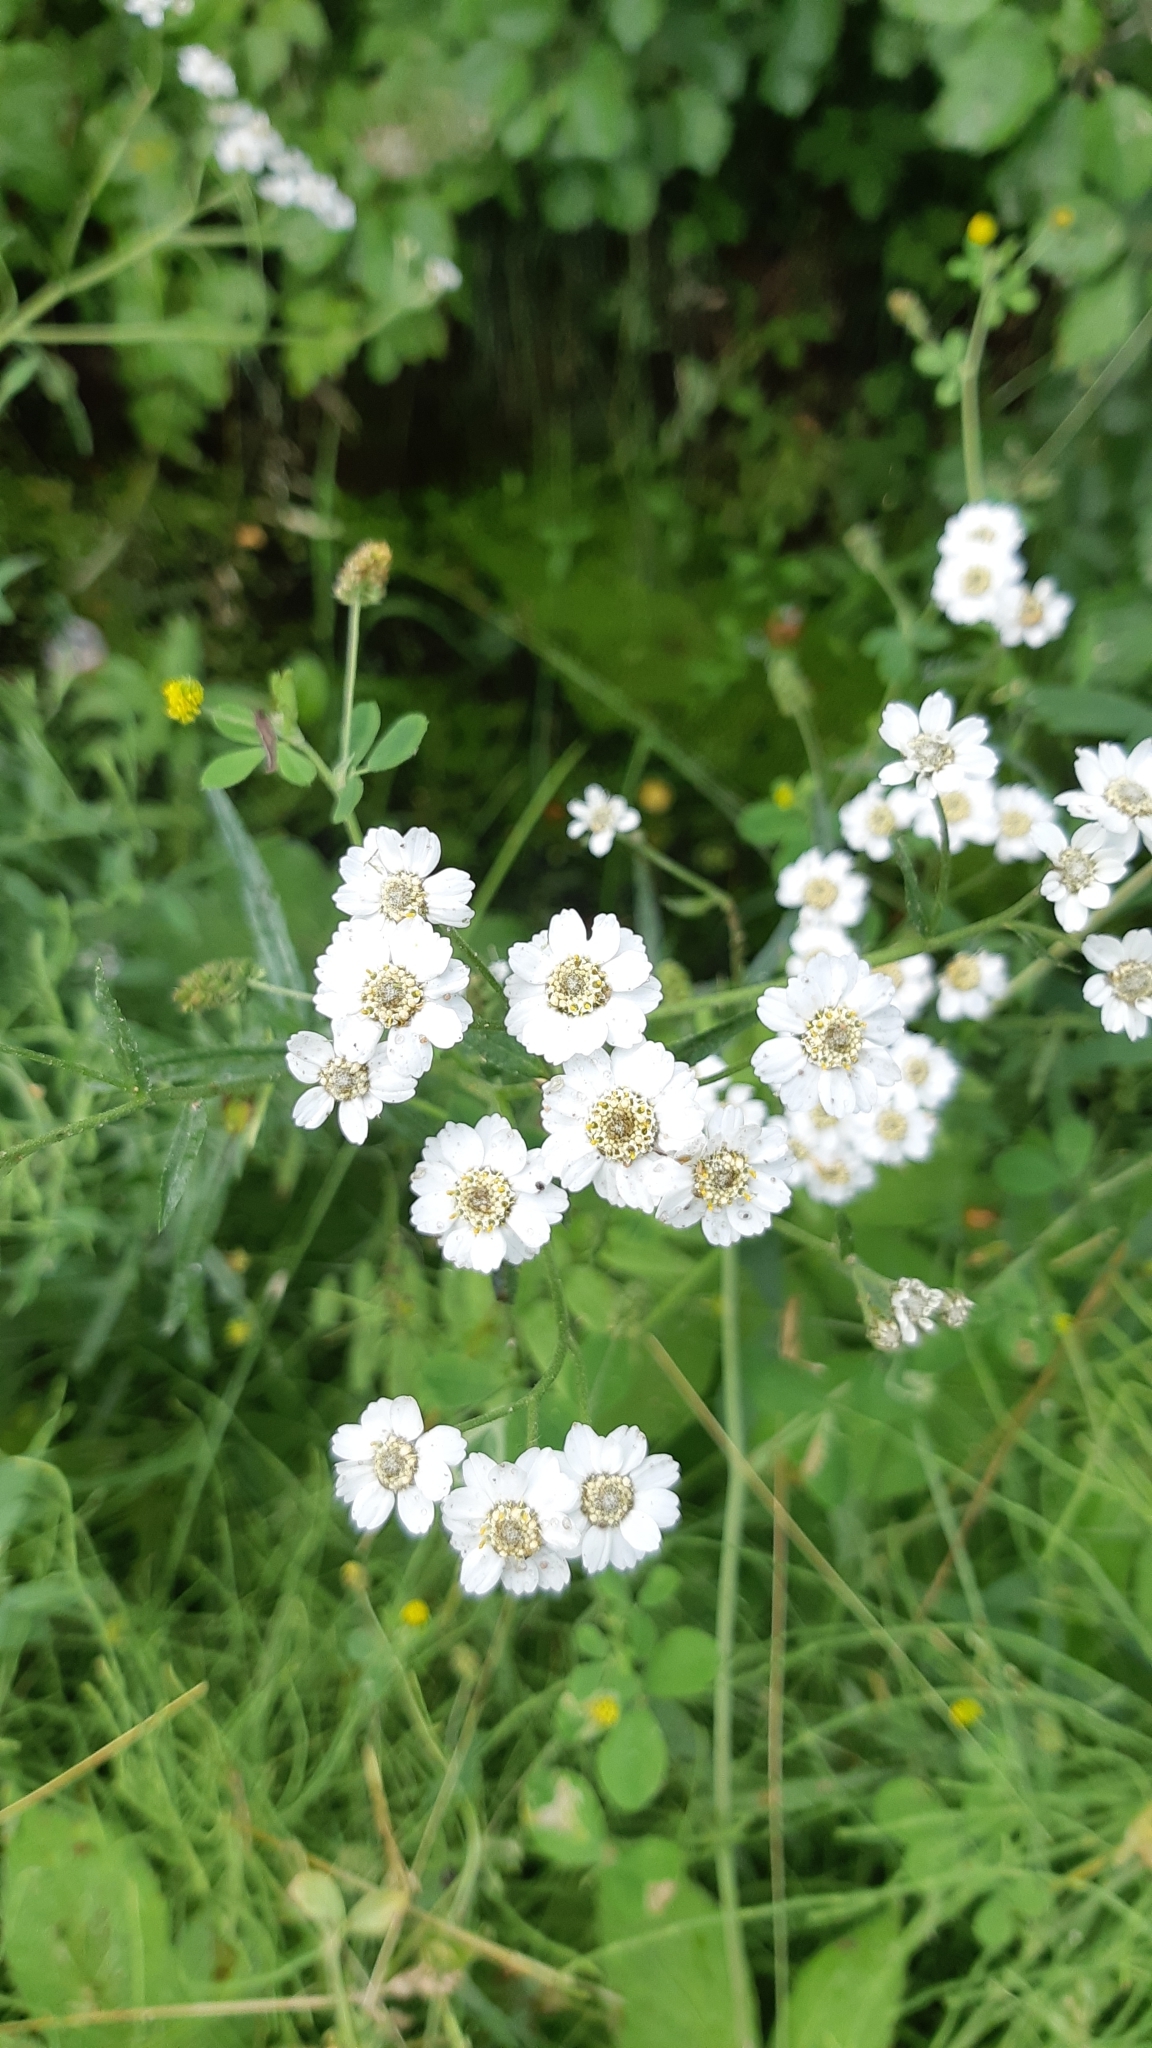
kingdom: Plantae
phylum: Tracheophyta
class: Magnoliopsida
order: Asterales
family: Asteraceae
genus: Achillea
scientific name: Achillea ptarmica
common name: Sneezeweed
